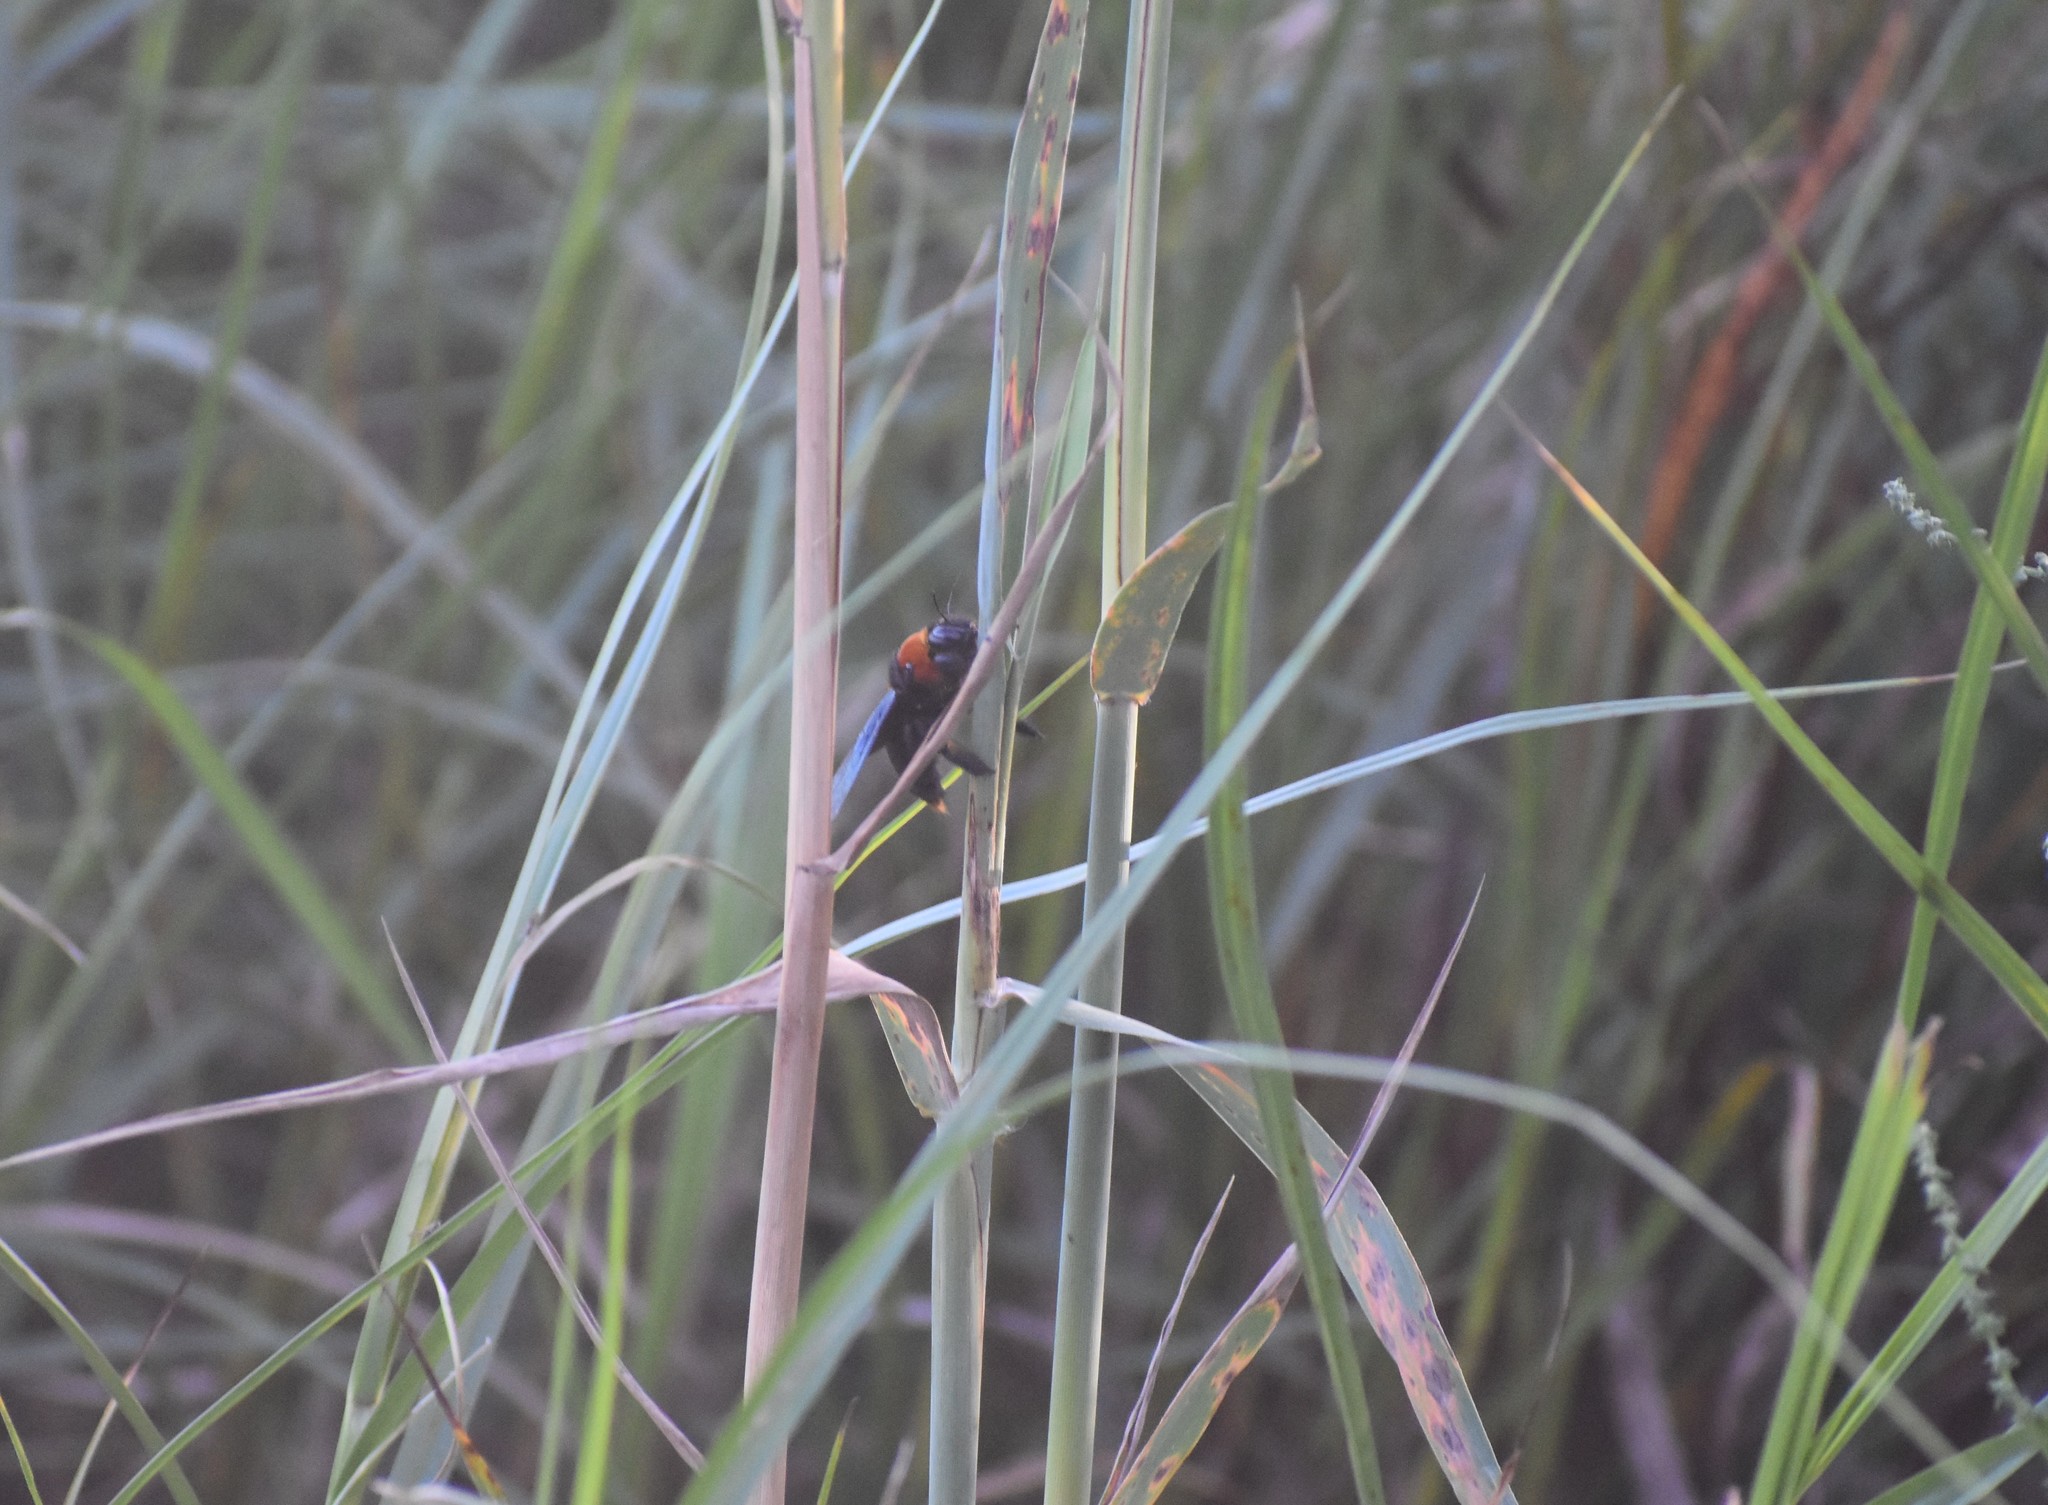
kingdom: Animalia
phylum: Arthropoda
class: Insecta
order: Hymenoptera
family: Apidae
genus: Xylocopa
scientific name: Xylocopa flavorufa
